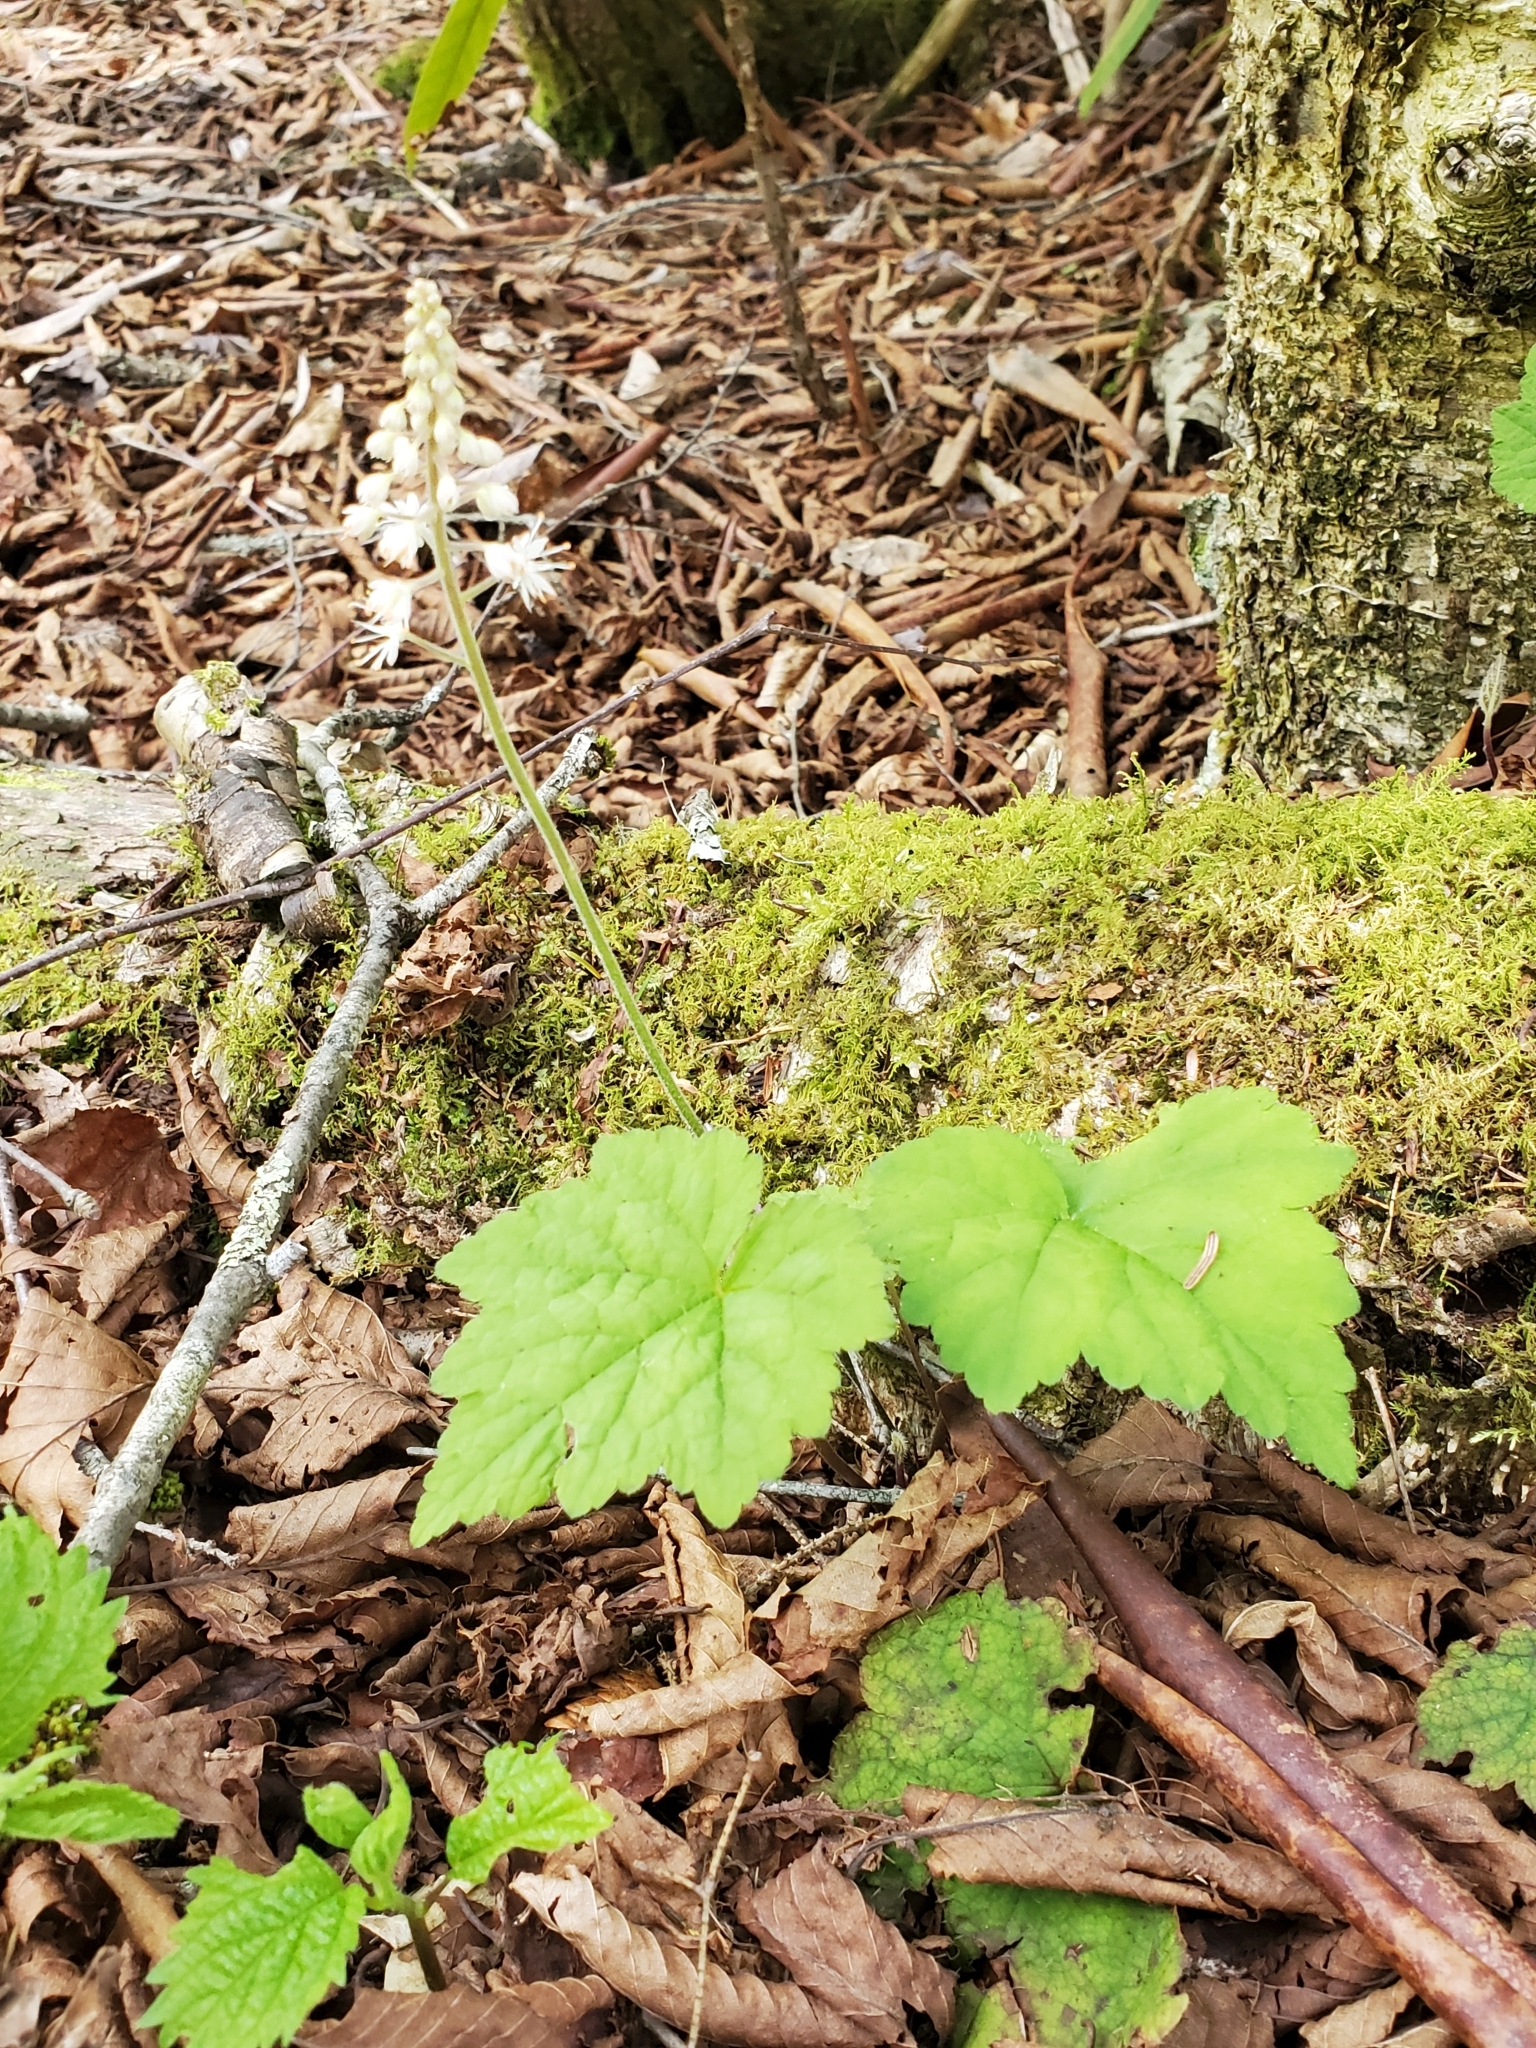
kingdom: Plantae
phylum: Tracheophyta
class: Magnoliopsida
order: Saxifragales
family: Saxifragaceae
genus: Tiarella
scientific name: Tiarella stolonifera
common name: Stoloniferous foamflower
